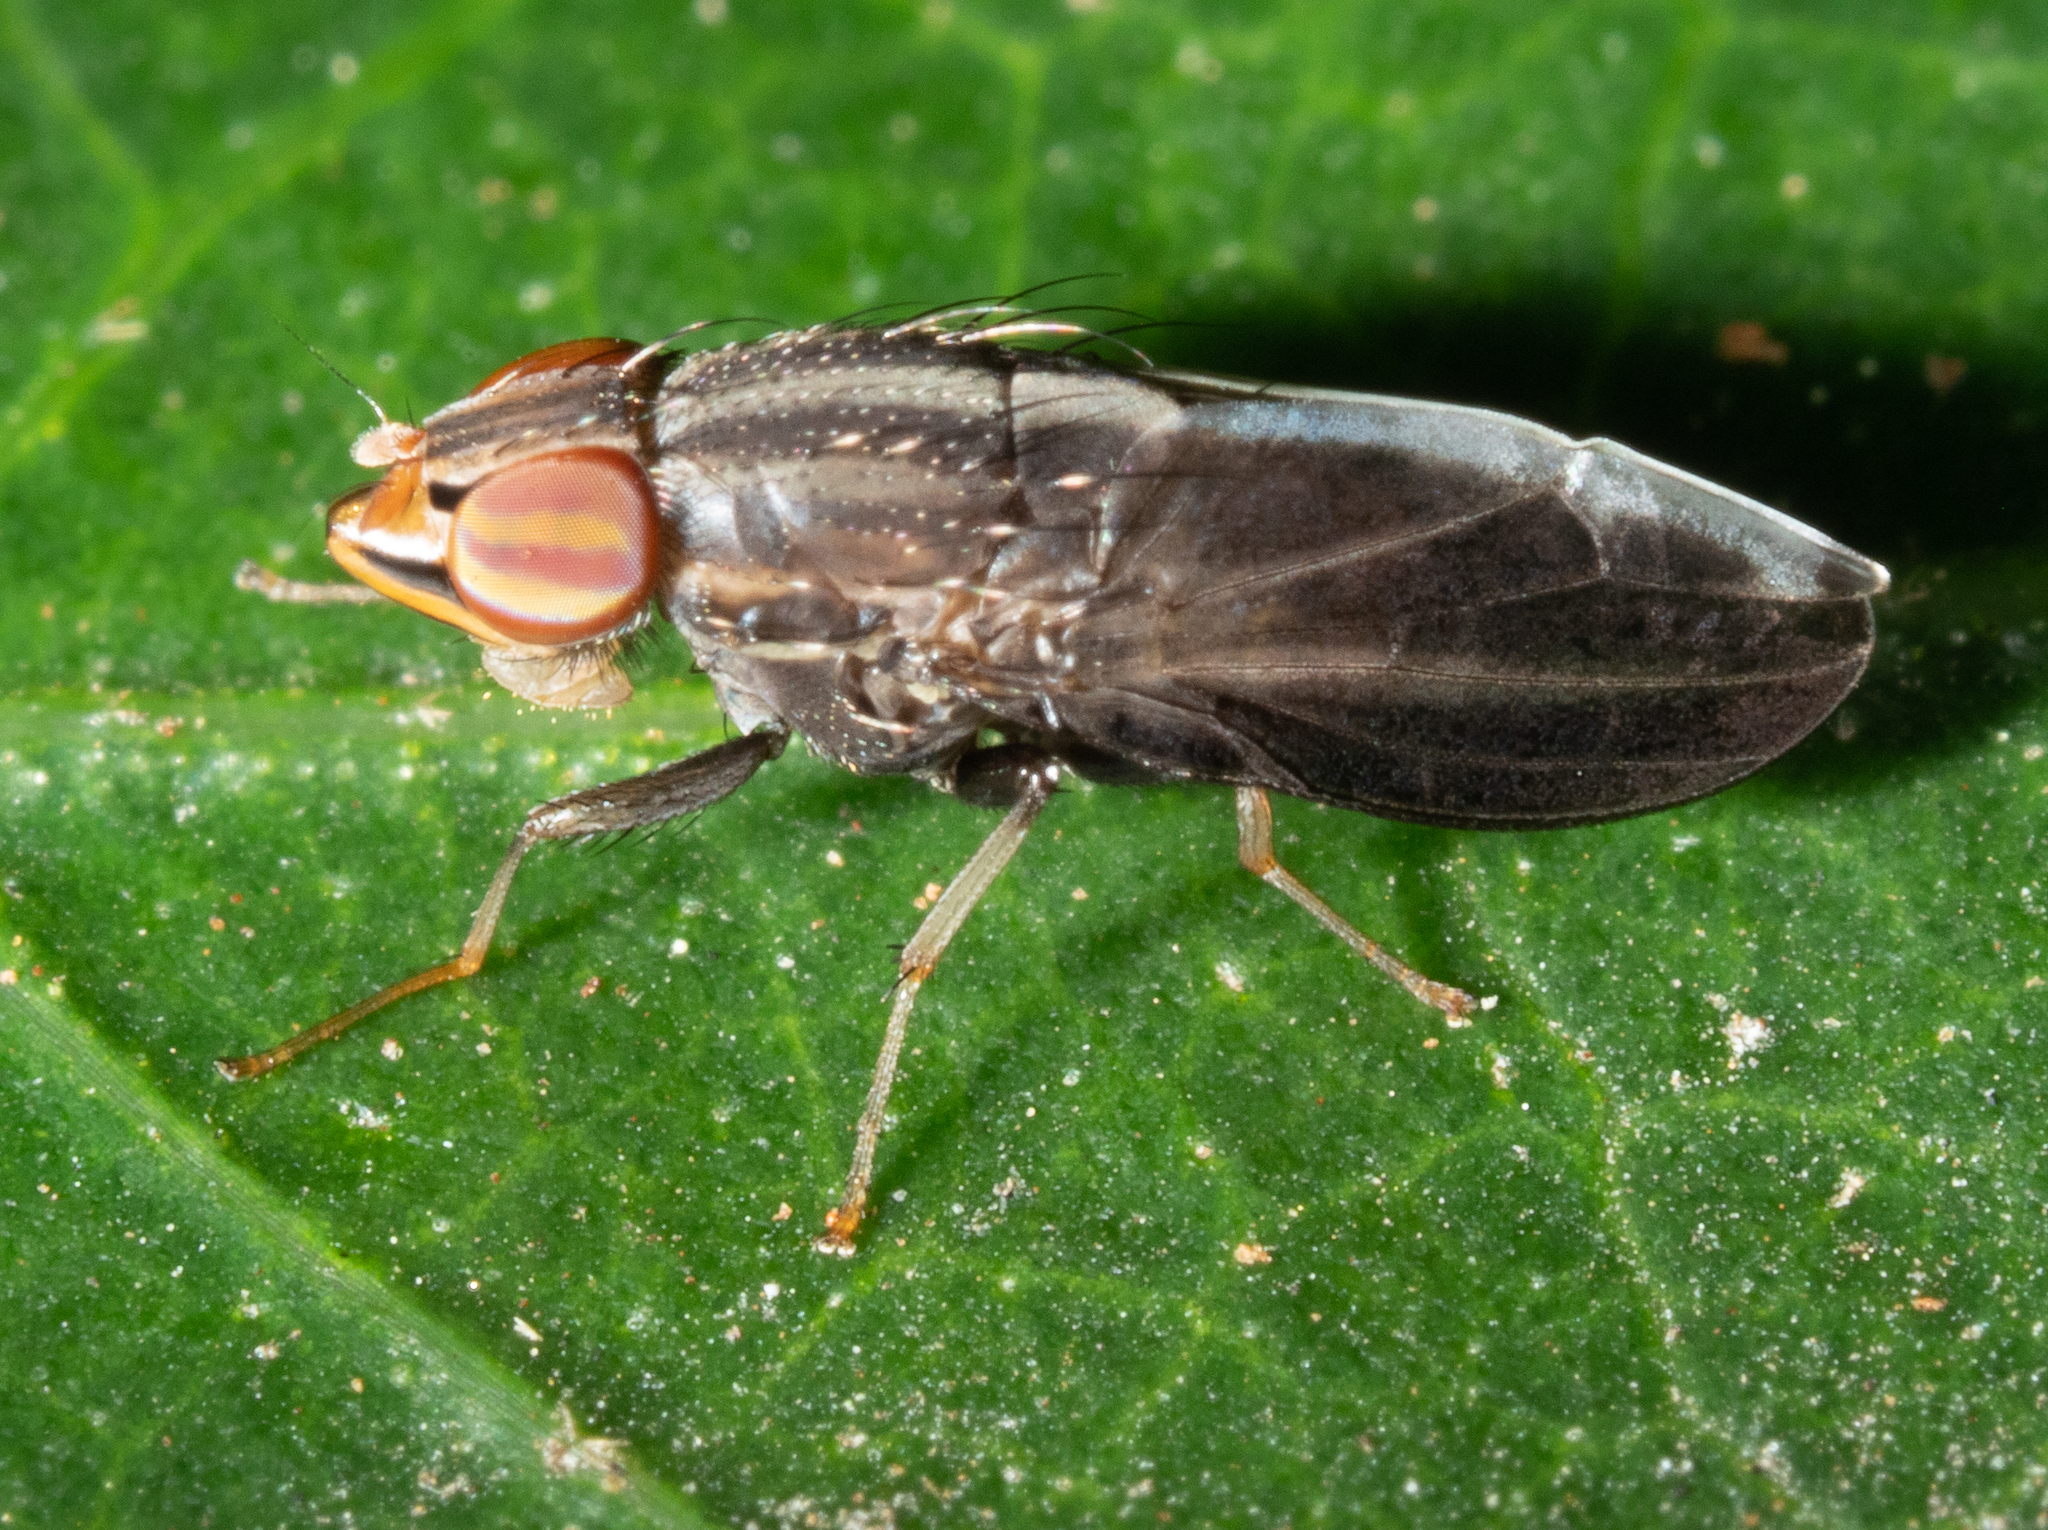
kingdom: Animalia
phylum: Arthropoda
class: Insecta
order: Diptera
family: Lauxaniidae
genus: Cephaloconus
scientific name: Cephaloconus cyprinus
